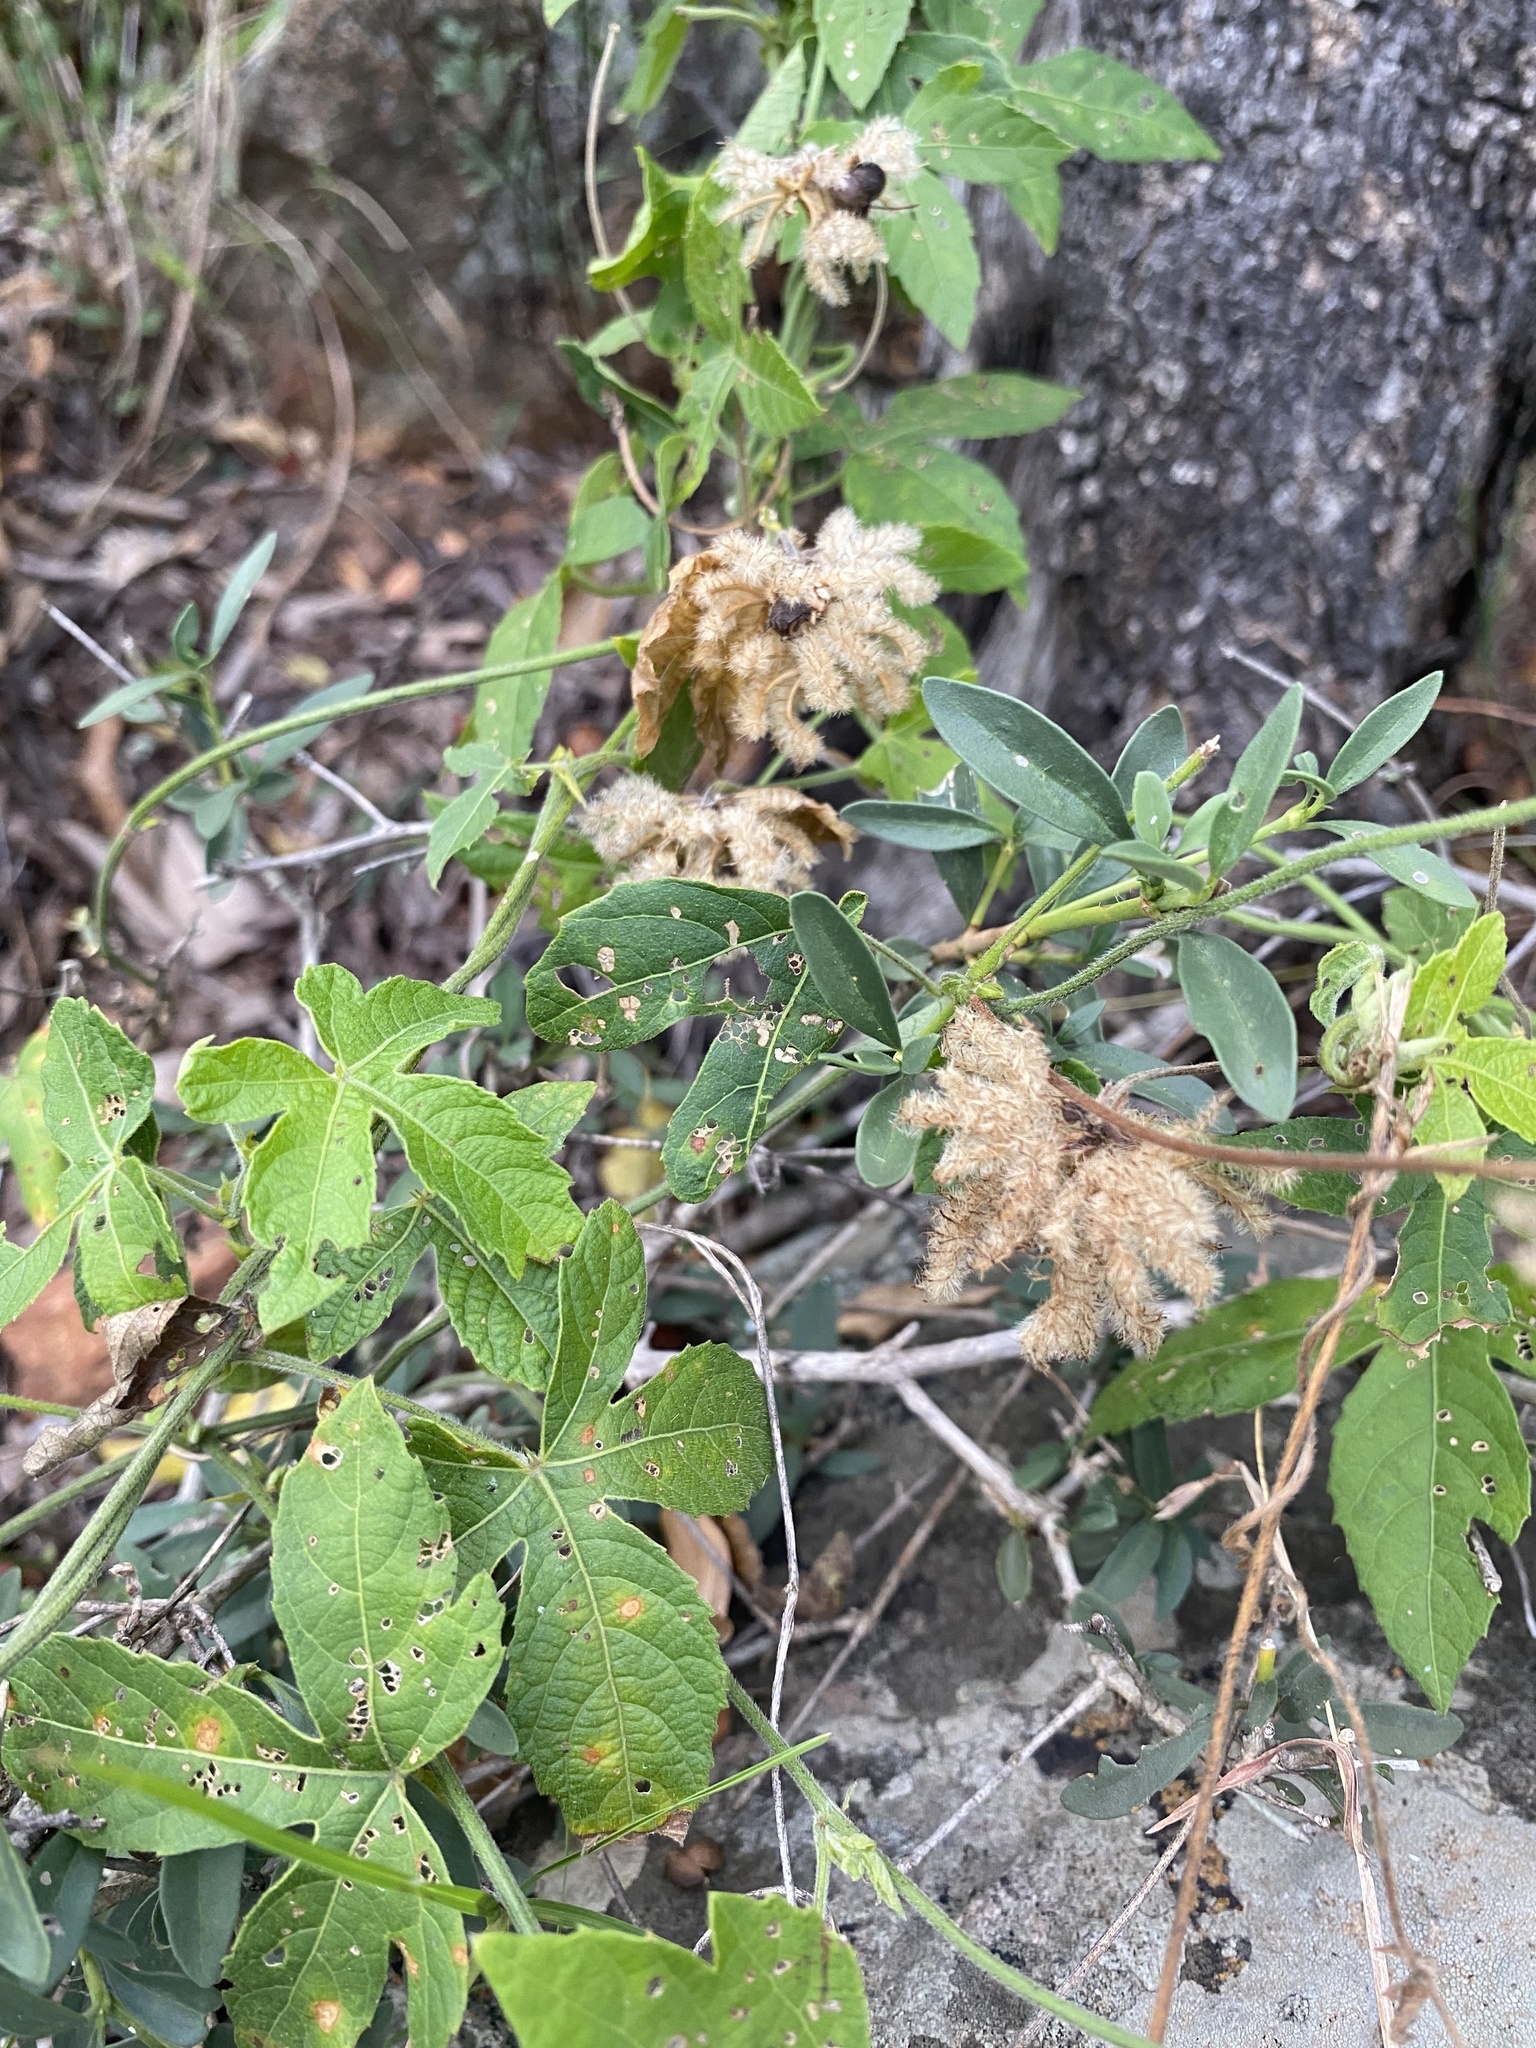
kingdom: Plantae
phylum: Tracheophyta
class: Magnoliopsida
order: Malpighiales
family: Euphorbiaceae
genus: Dalechampia
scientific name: Dalechampia capensis
